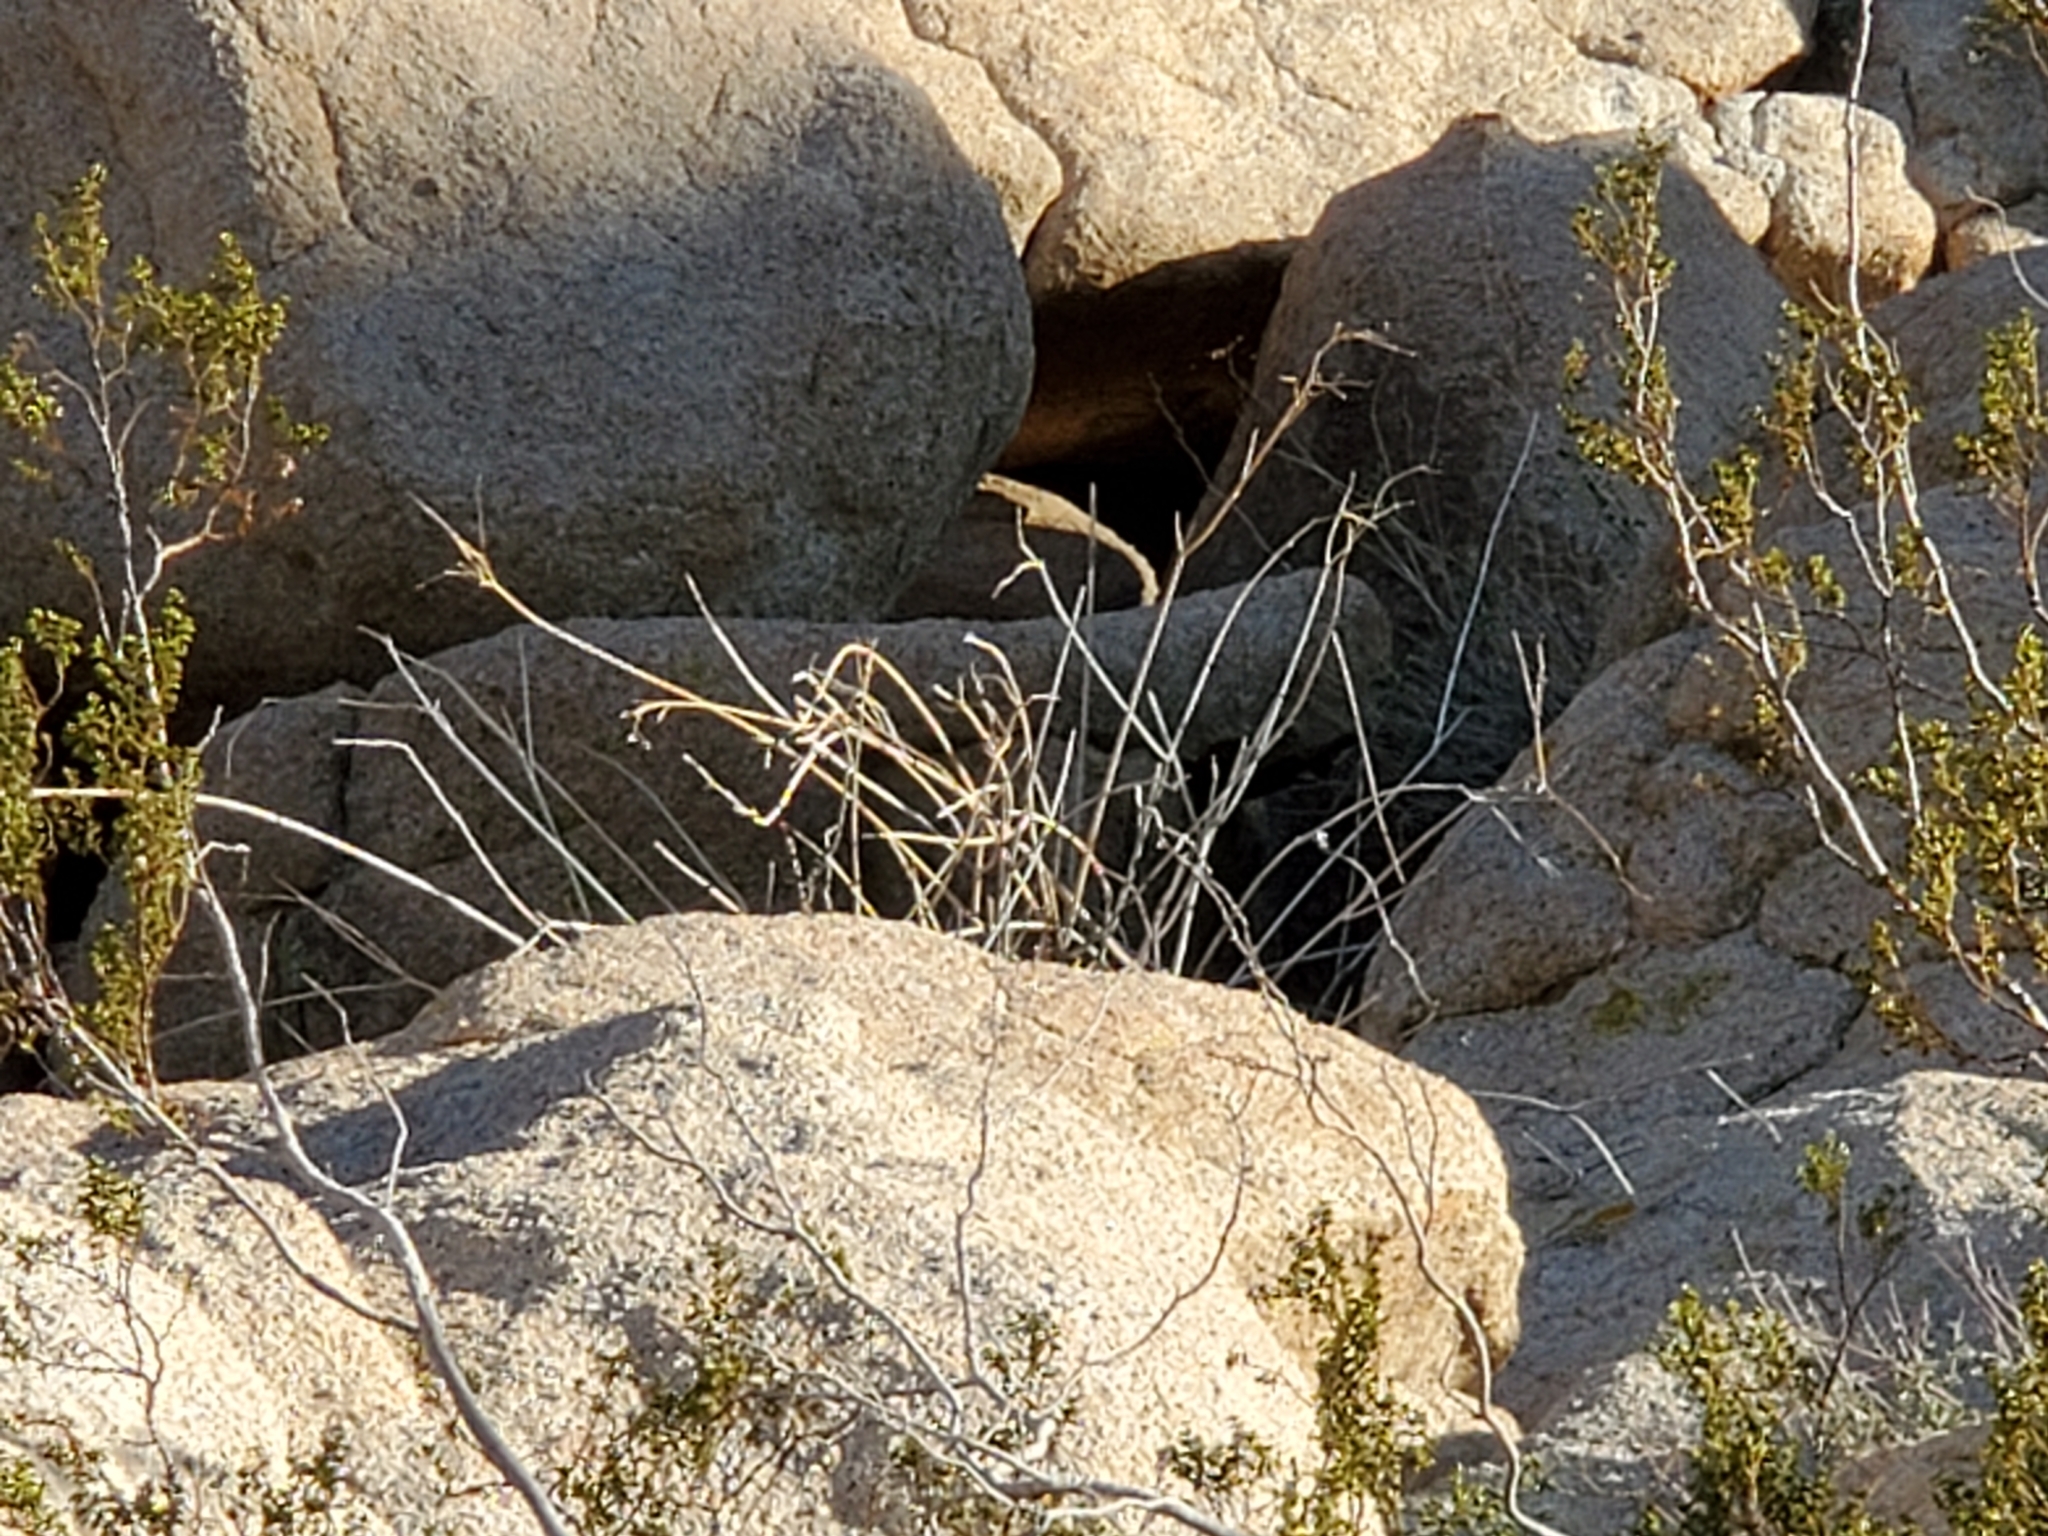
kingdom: Plantae
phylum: Tracheophyta
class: Magnoliopsida
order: Gentianales
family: Apocynaceae
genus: Asclepias
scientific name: Asclepias albicans
